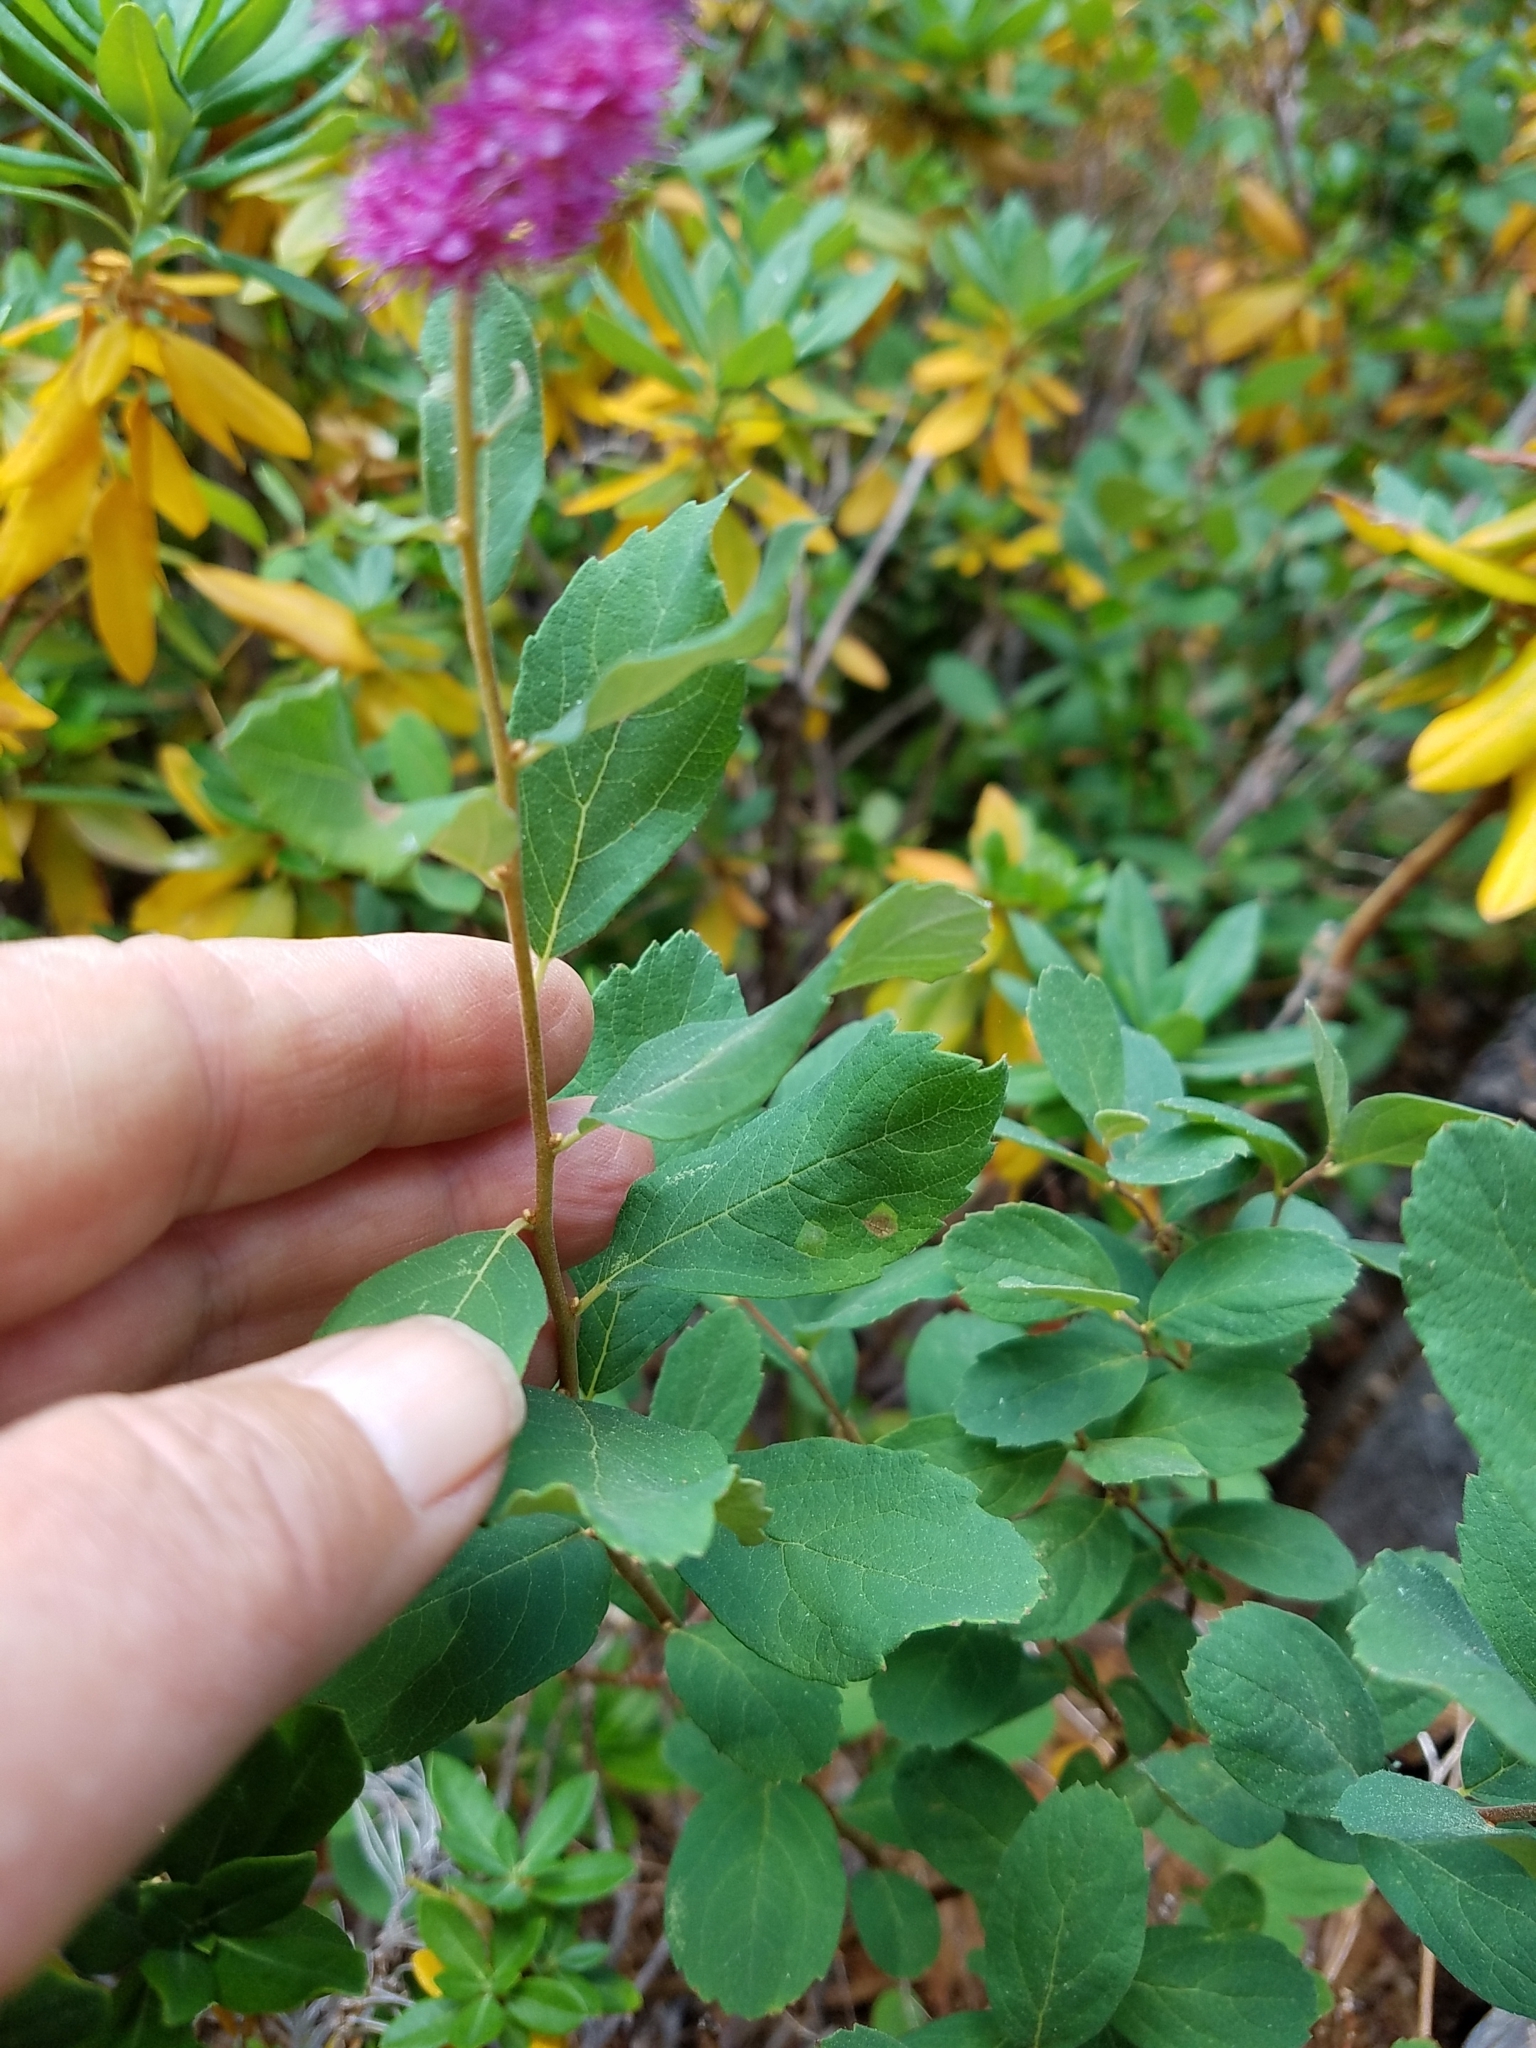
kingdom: Plantae
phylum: Tracheophyta
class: Magnoliopsida
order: Rosales
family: Rosaceae
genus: Spiraea
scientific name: Spiraea douglasii
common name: Steeplebush
